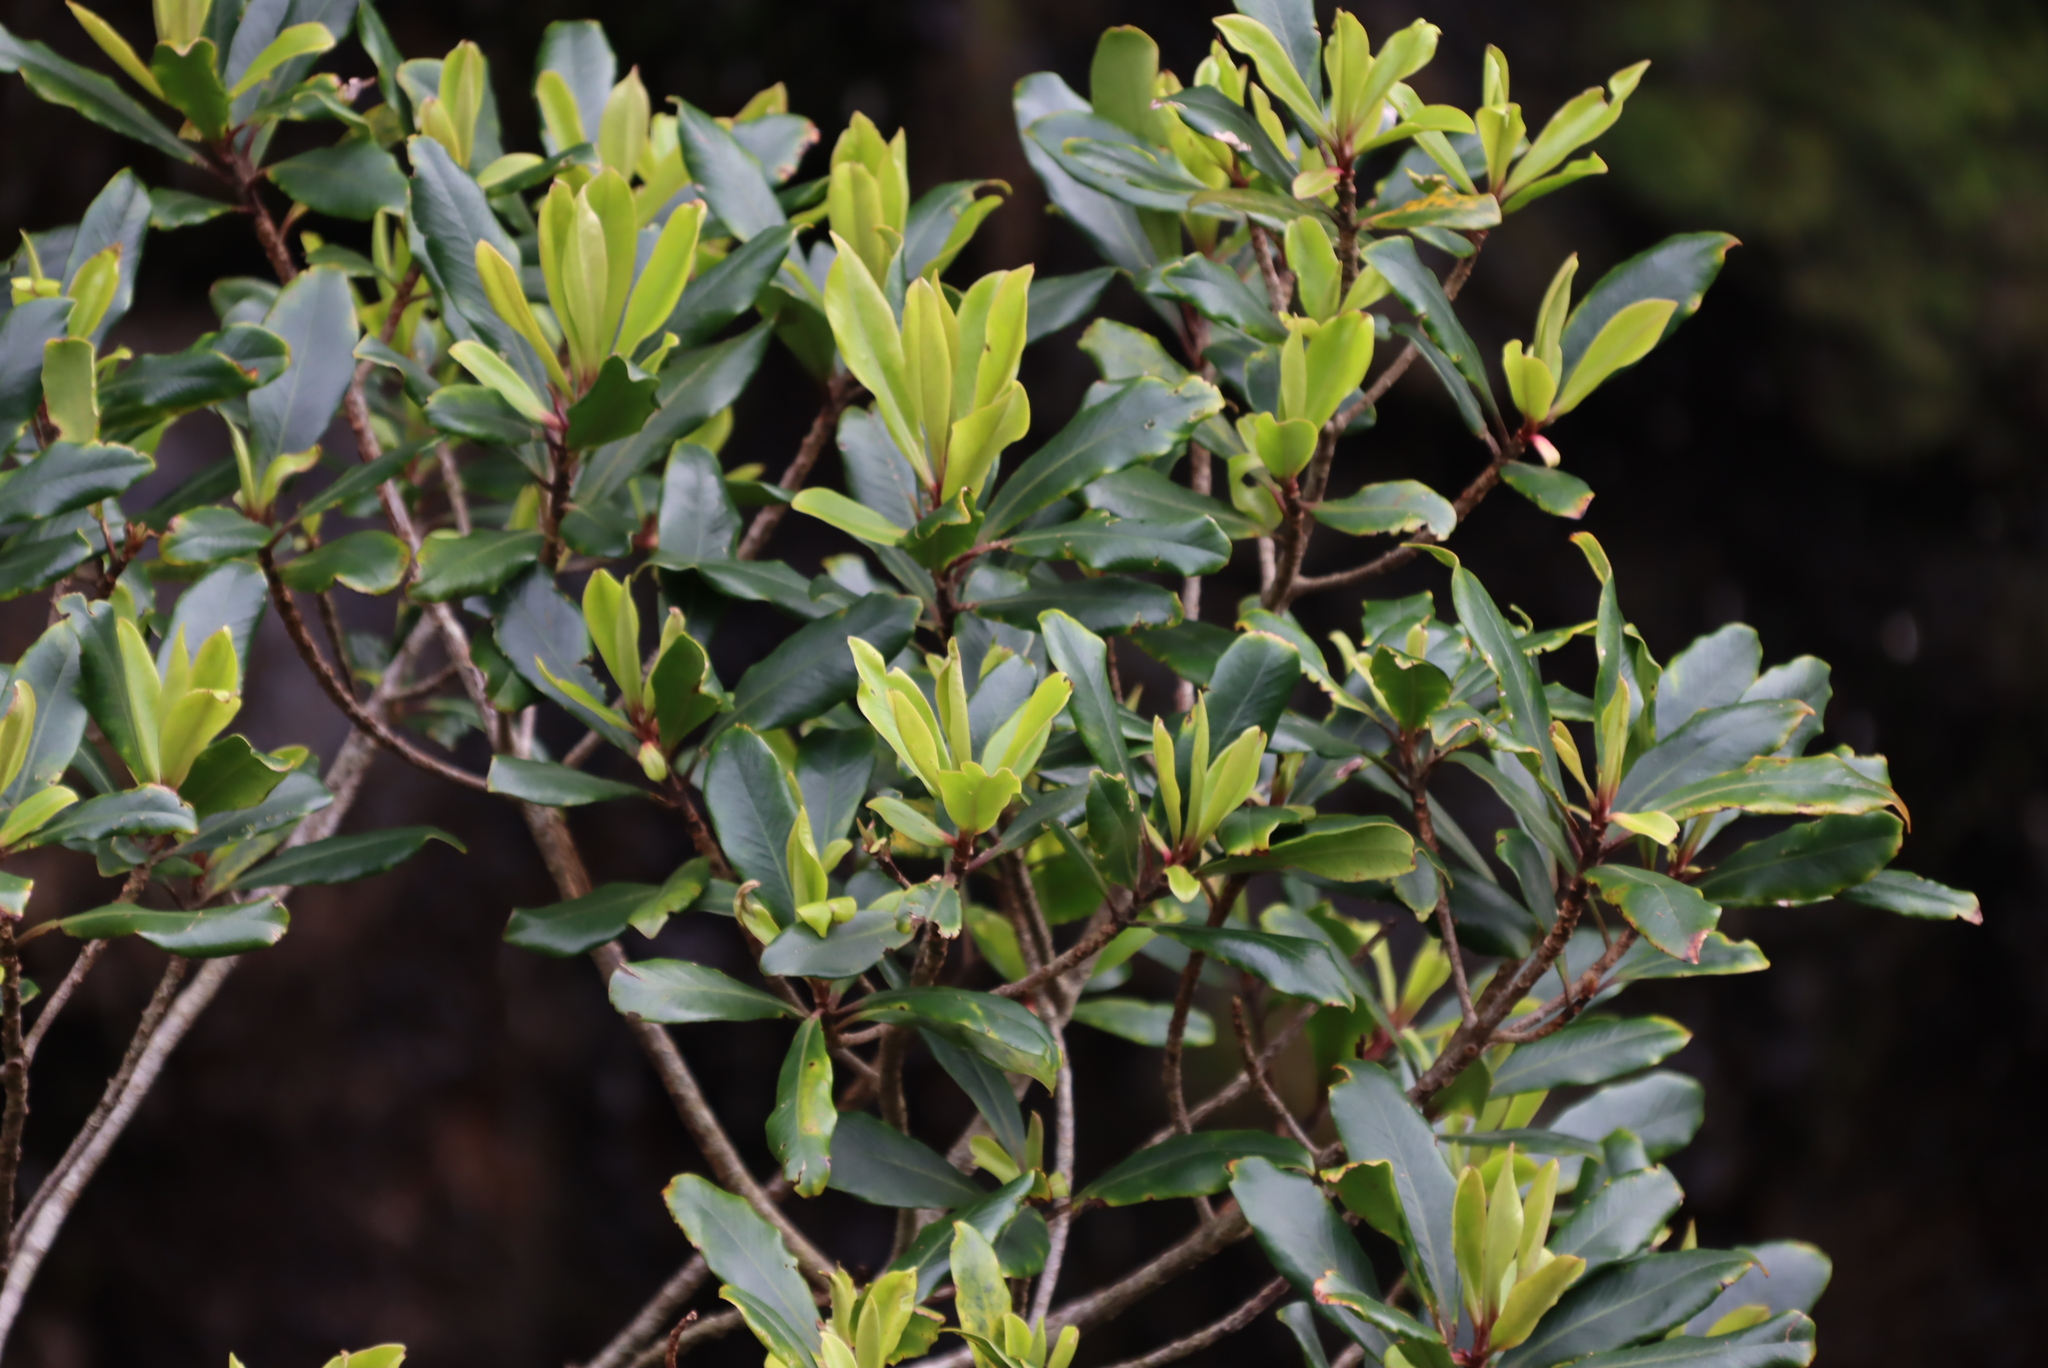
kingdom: Plantae
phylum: Tracheophyta
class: Magnoliopsida
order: Ericales
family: Primulaceae
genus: Myrsine
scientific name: Myrsine melanophloeos
